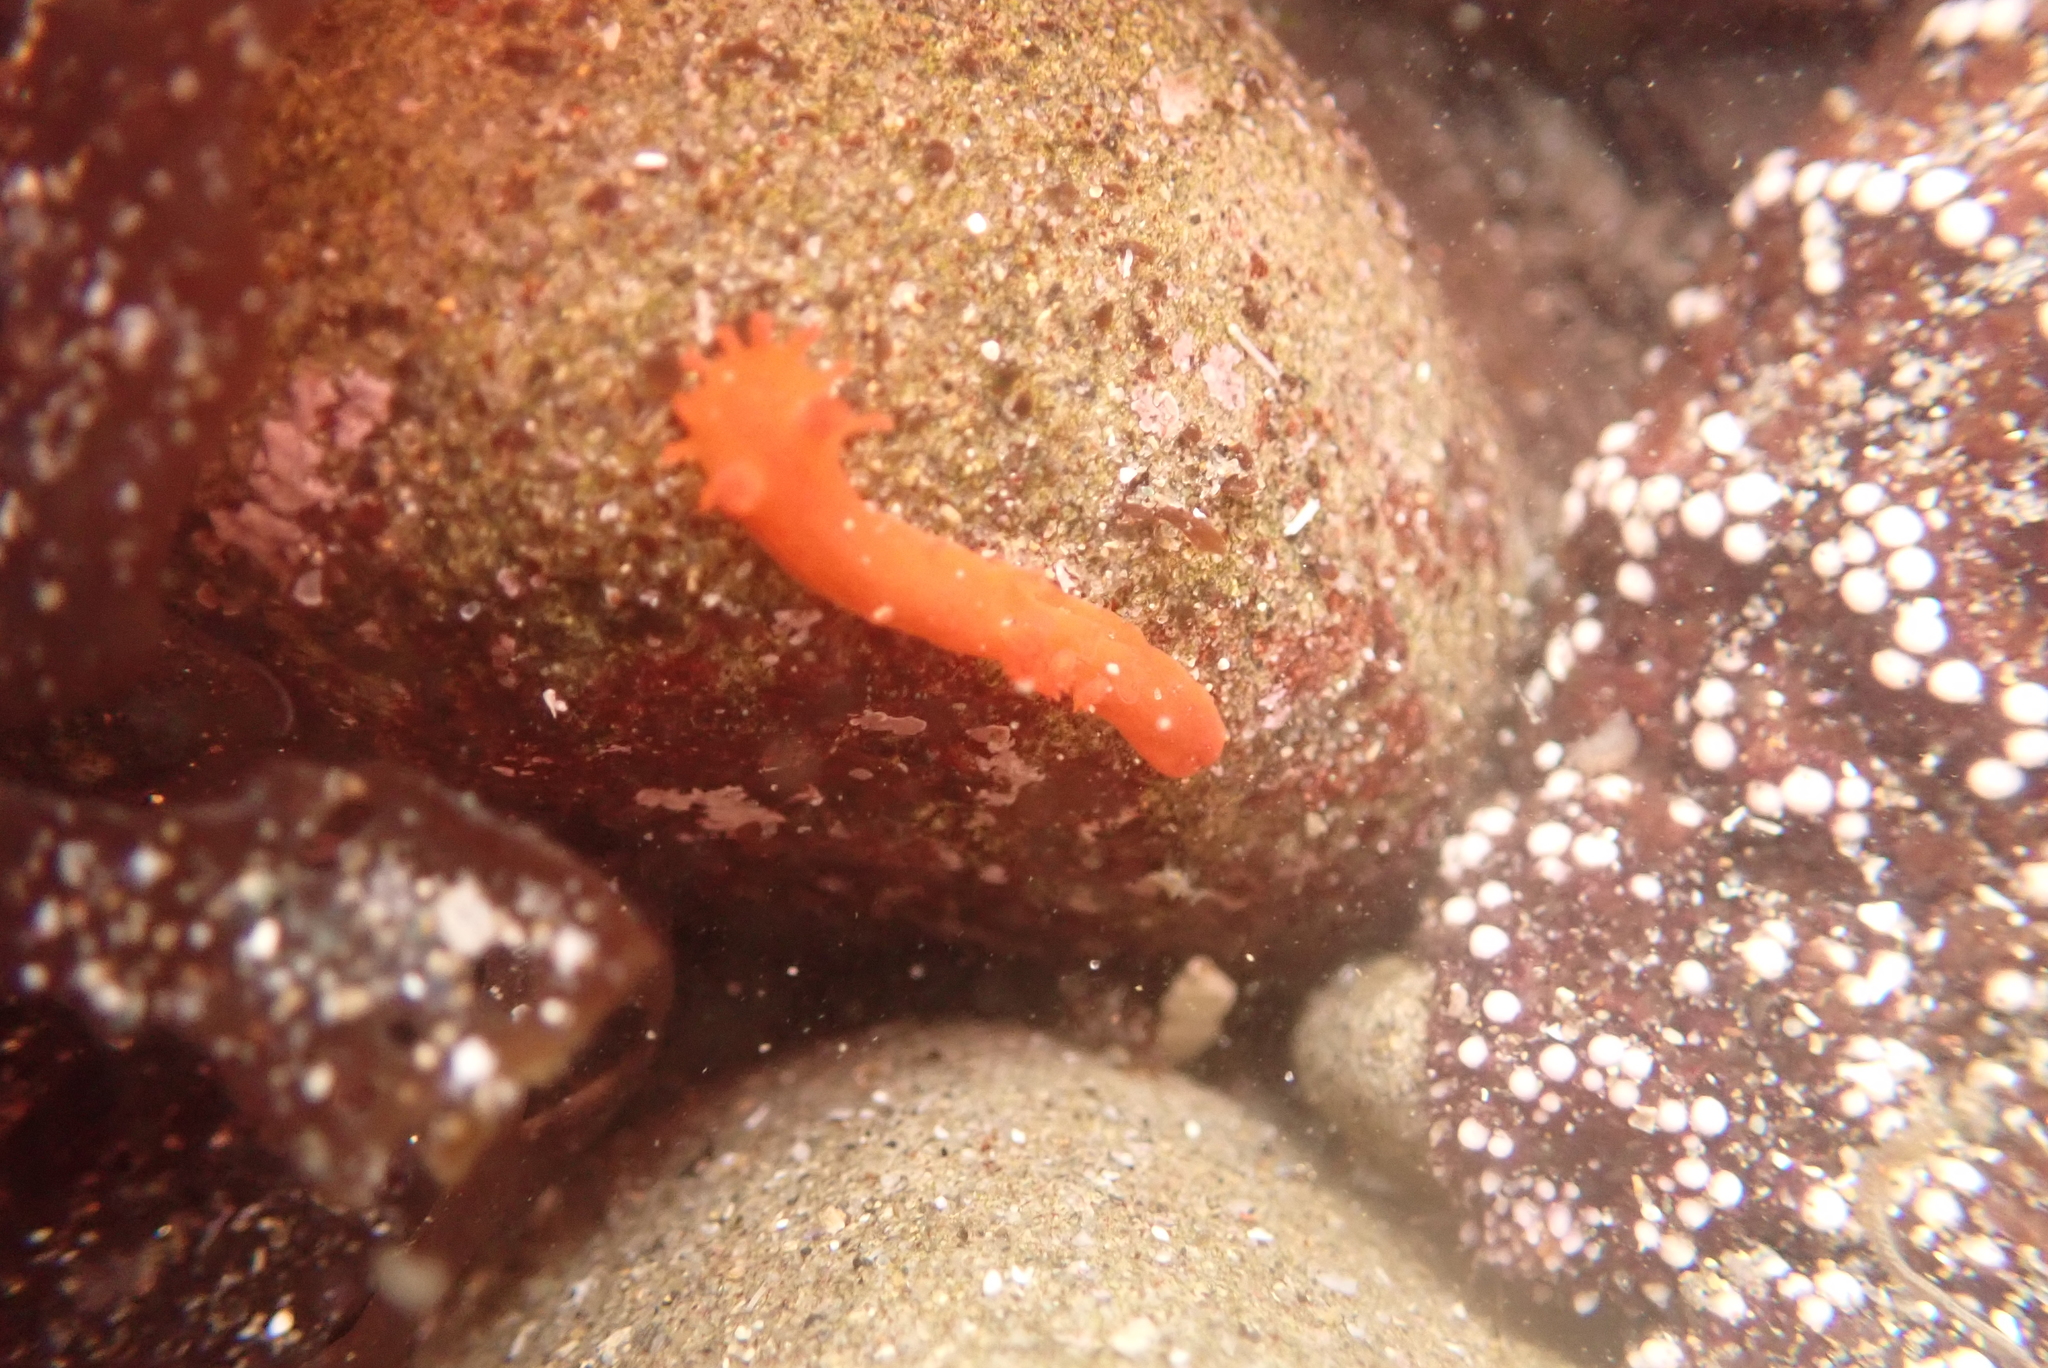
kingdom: Animalia
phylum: Mollusca
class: Gastropoda
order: Nudibranchia
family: Polyceridae
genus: Triopha
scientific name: Triopha maculata
